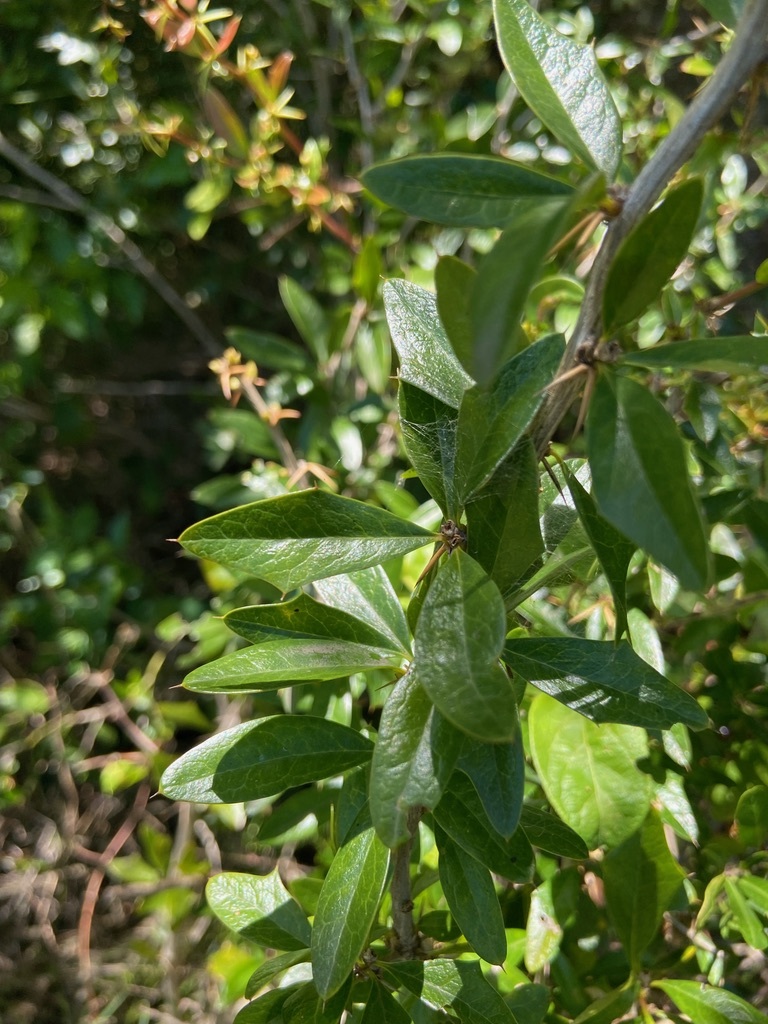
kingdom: Plantae
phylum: Tracheophyta
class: Magnoliopsida
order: Ranunculales
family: Berberidaceae
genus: Berberis
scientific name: Berberis ruscifolia
